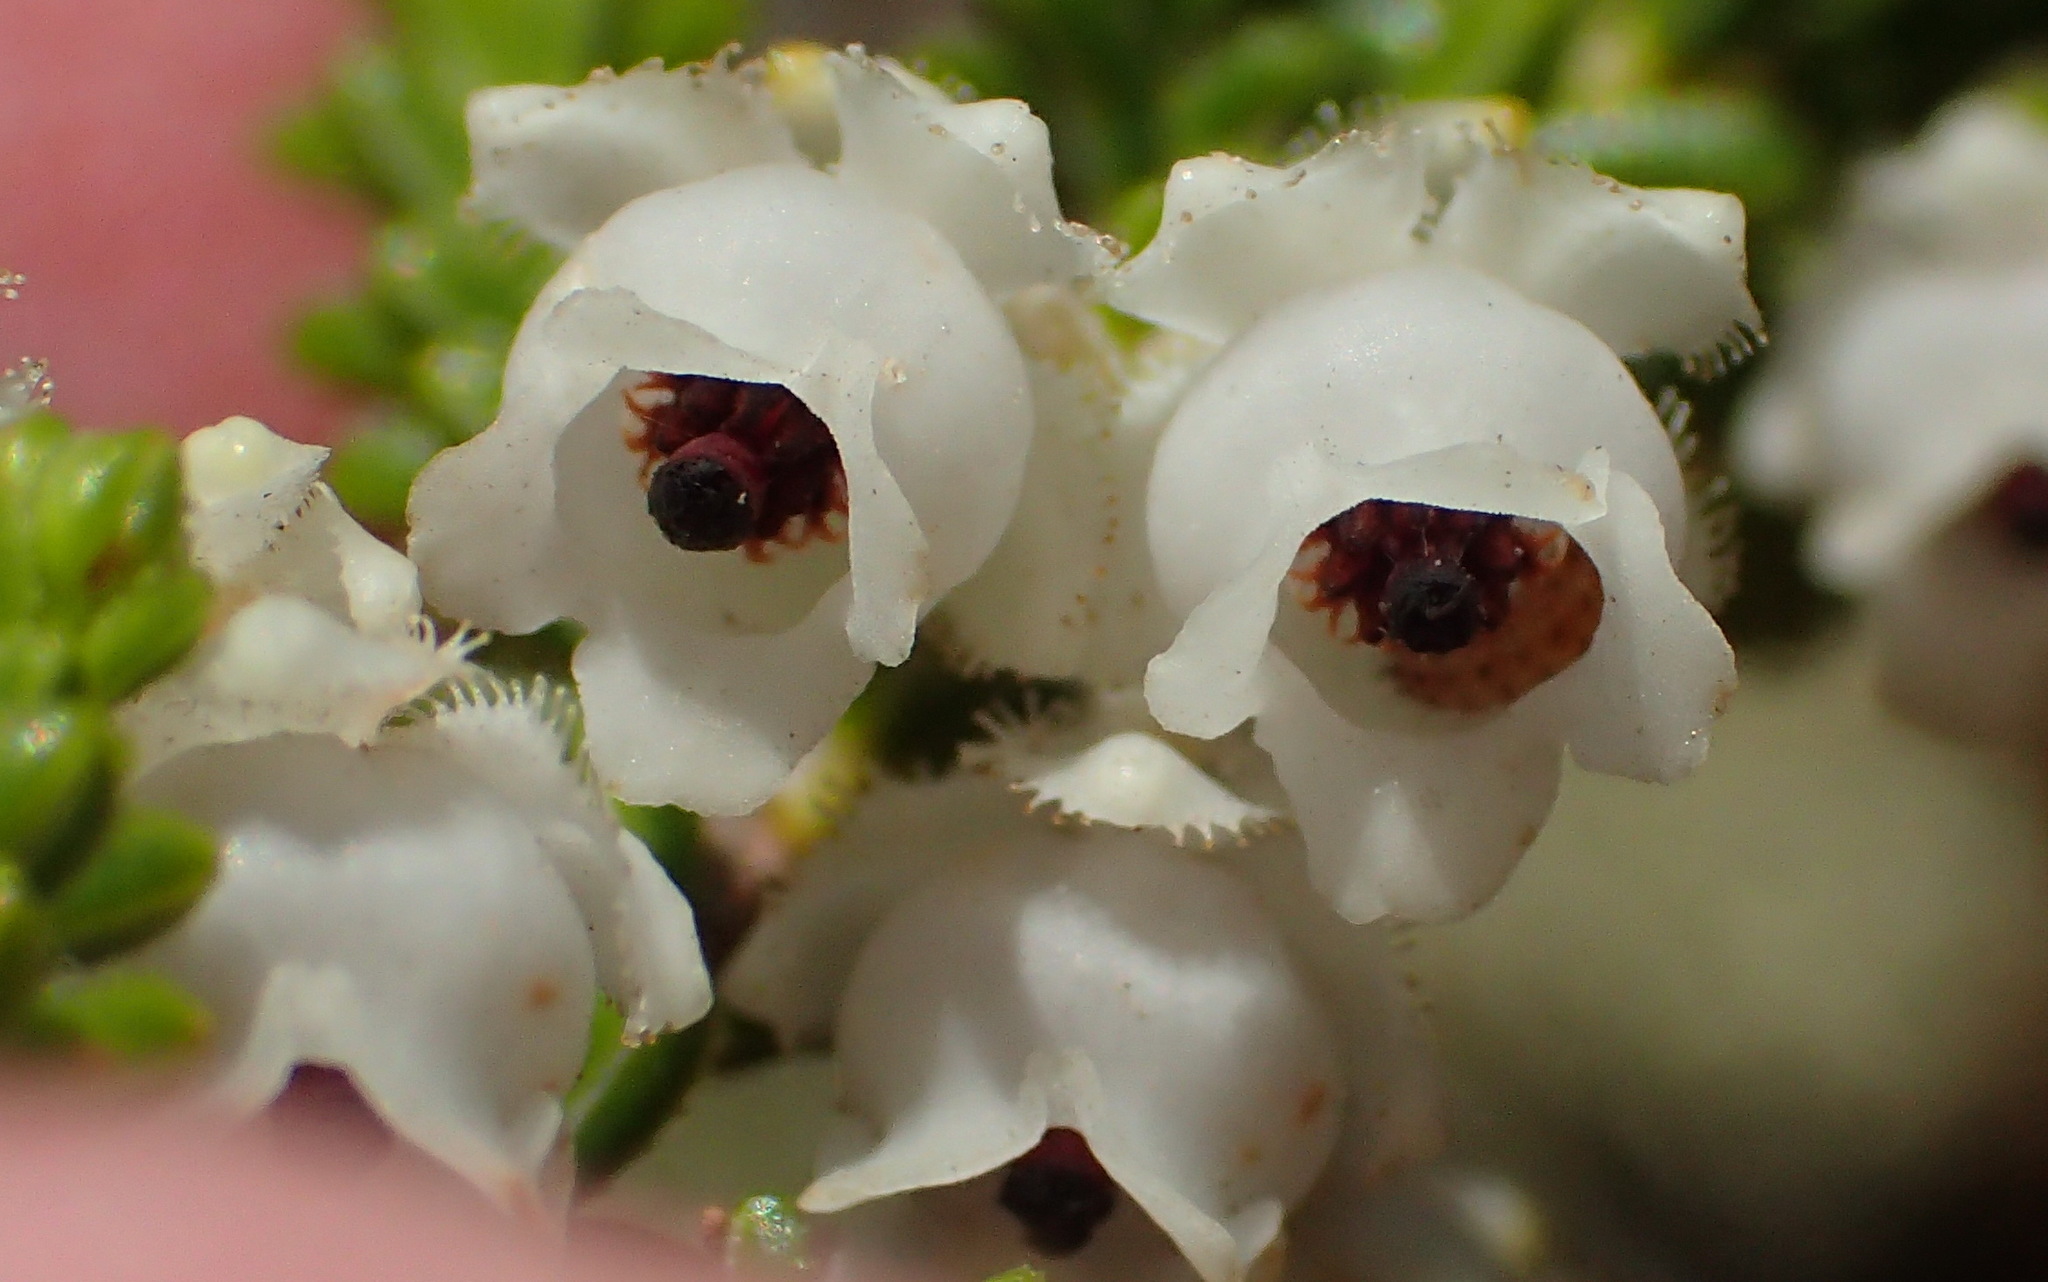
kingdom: Plantae
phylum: Tracheophyta
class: Magnoliopsida
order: Ericales
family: Ericaceae
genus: Erica
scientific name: Erica fimbriata
